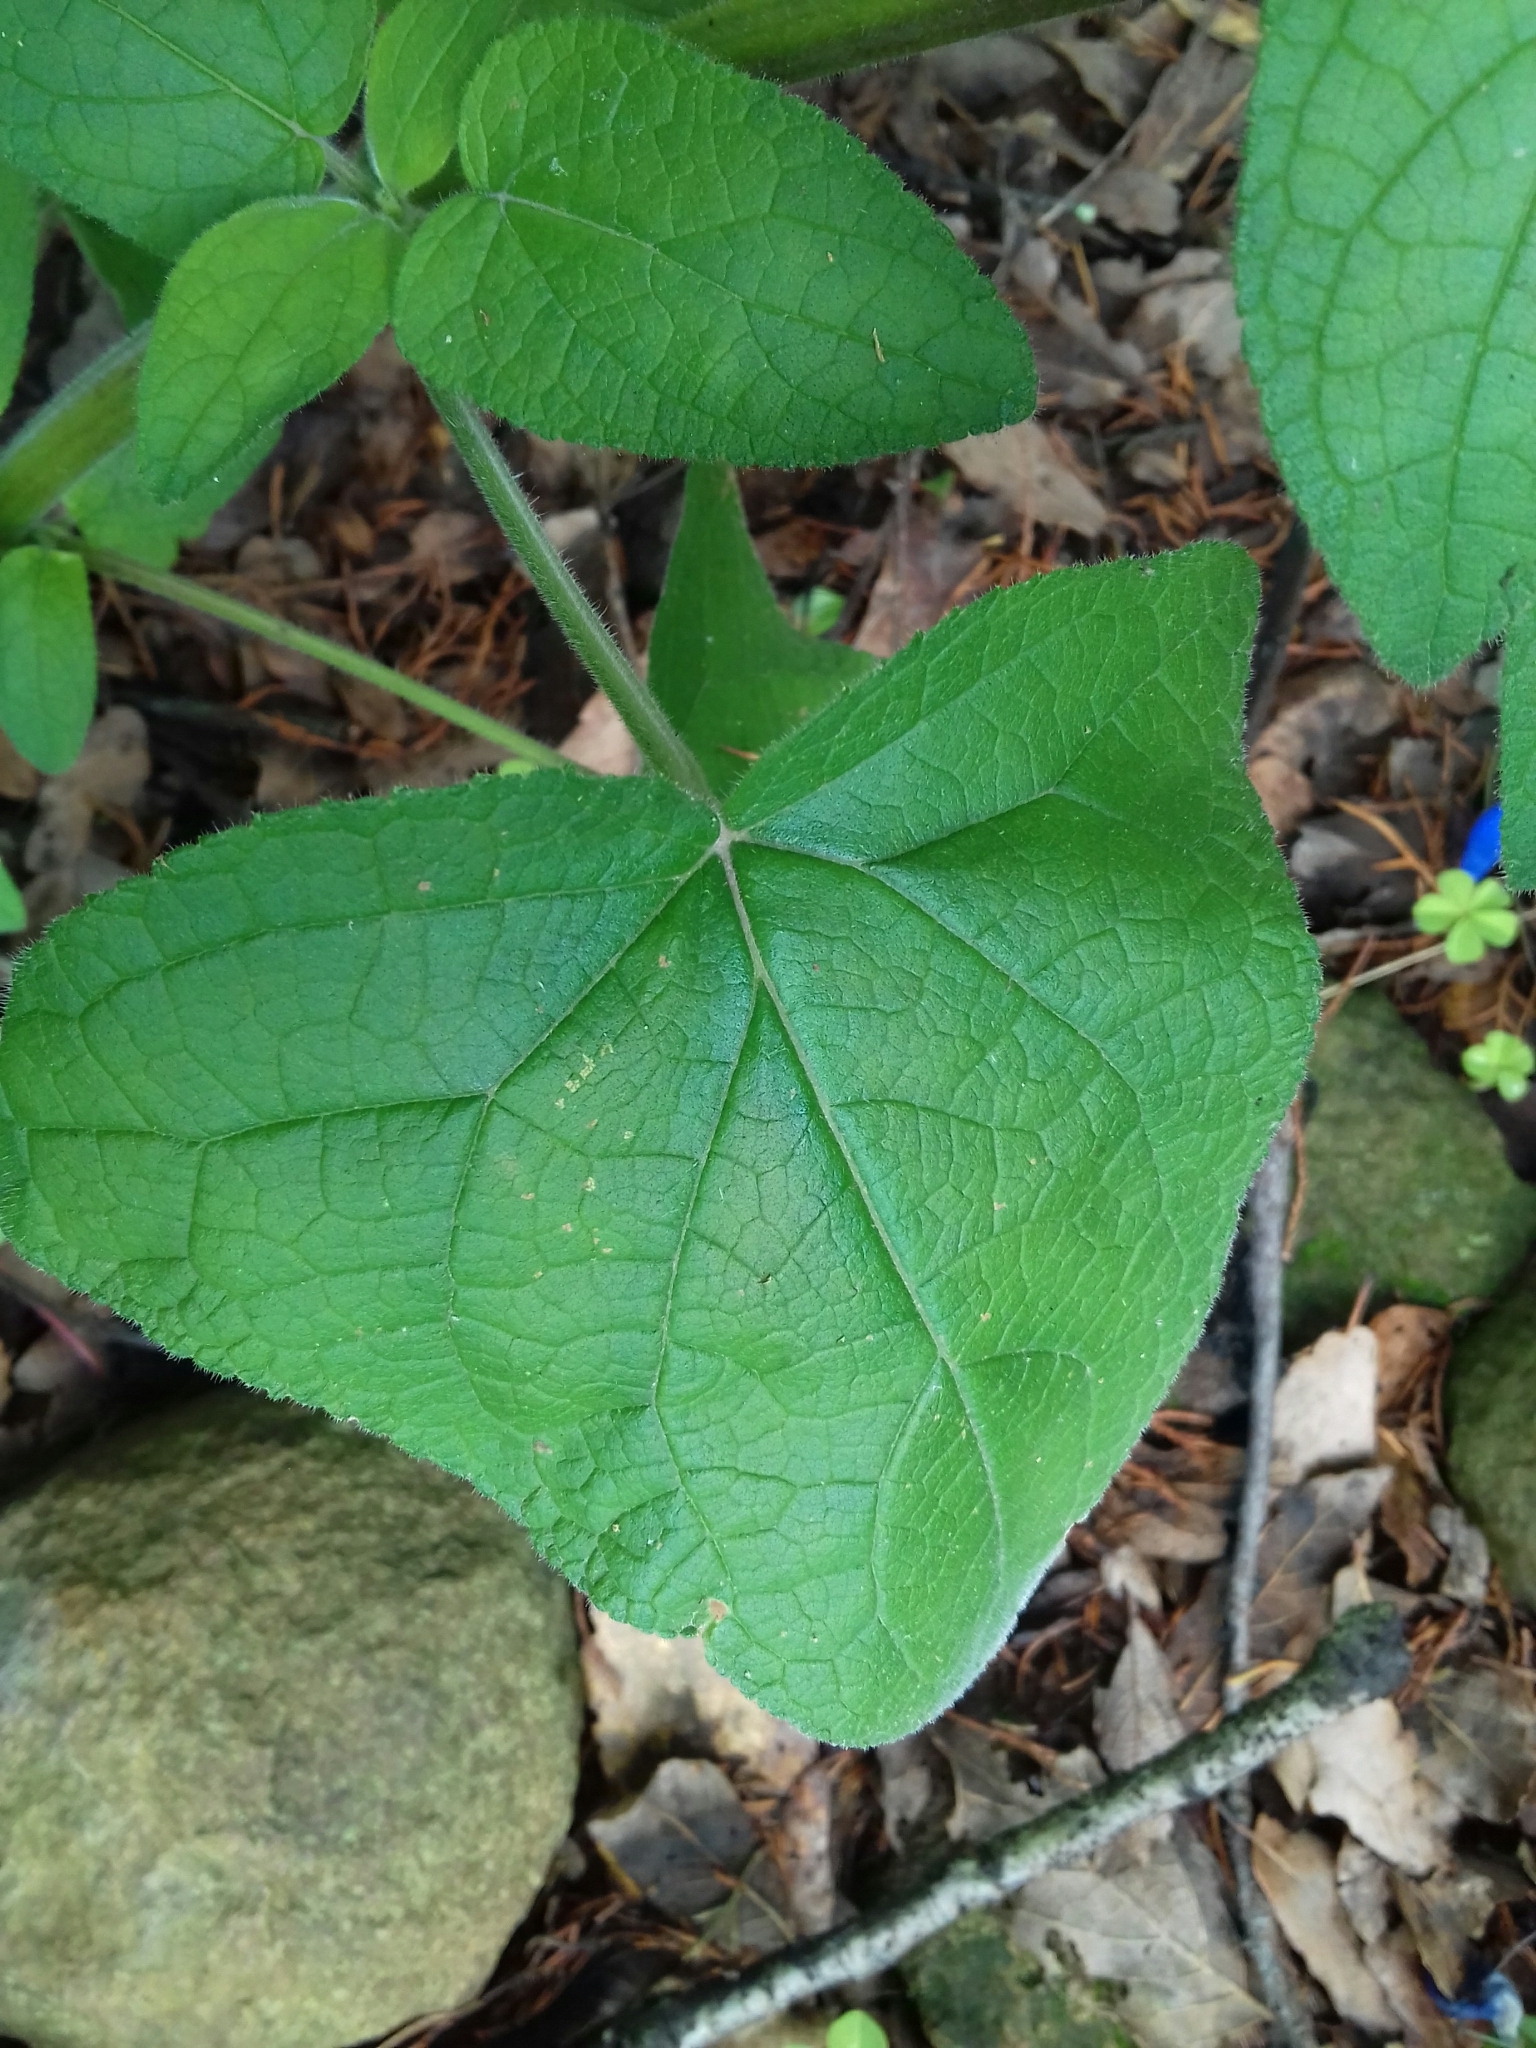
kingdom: Plantae
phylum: Tracheophyta
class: Magnoliopsida
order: Lamiales
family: Lamiaceae
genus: Salvia
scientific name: Salvia patens
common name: Blue sage
